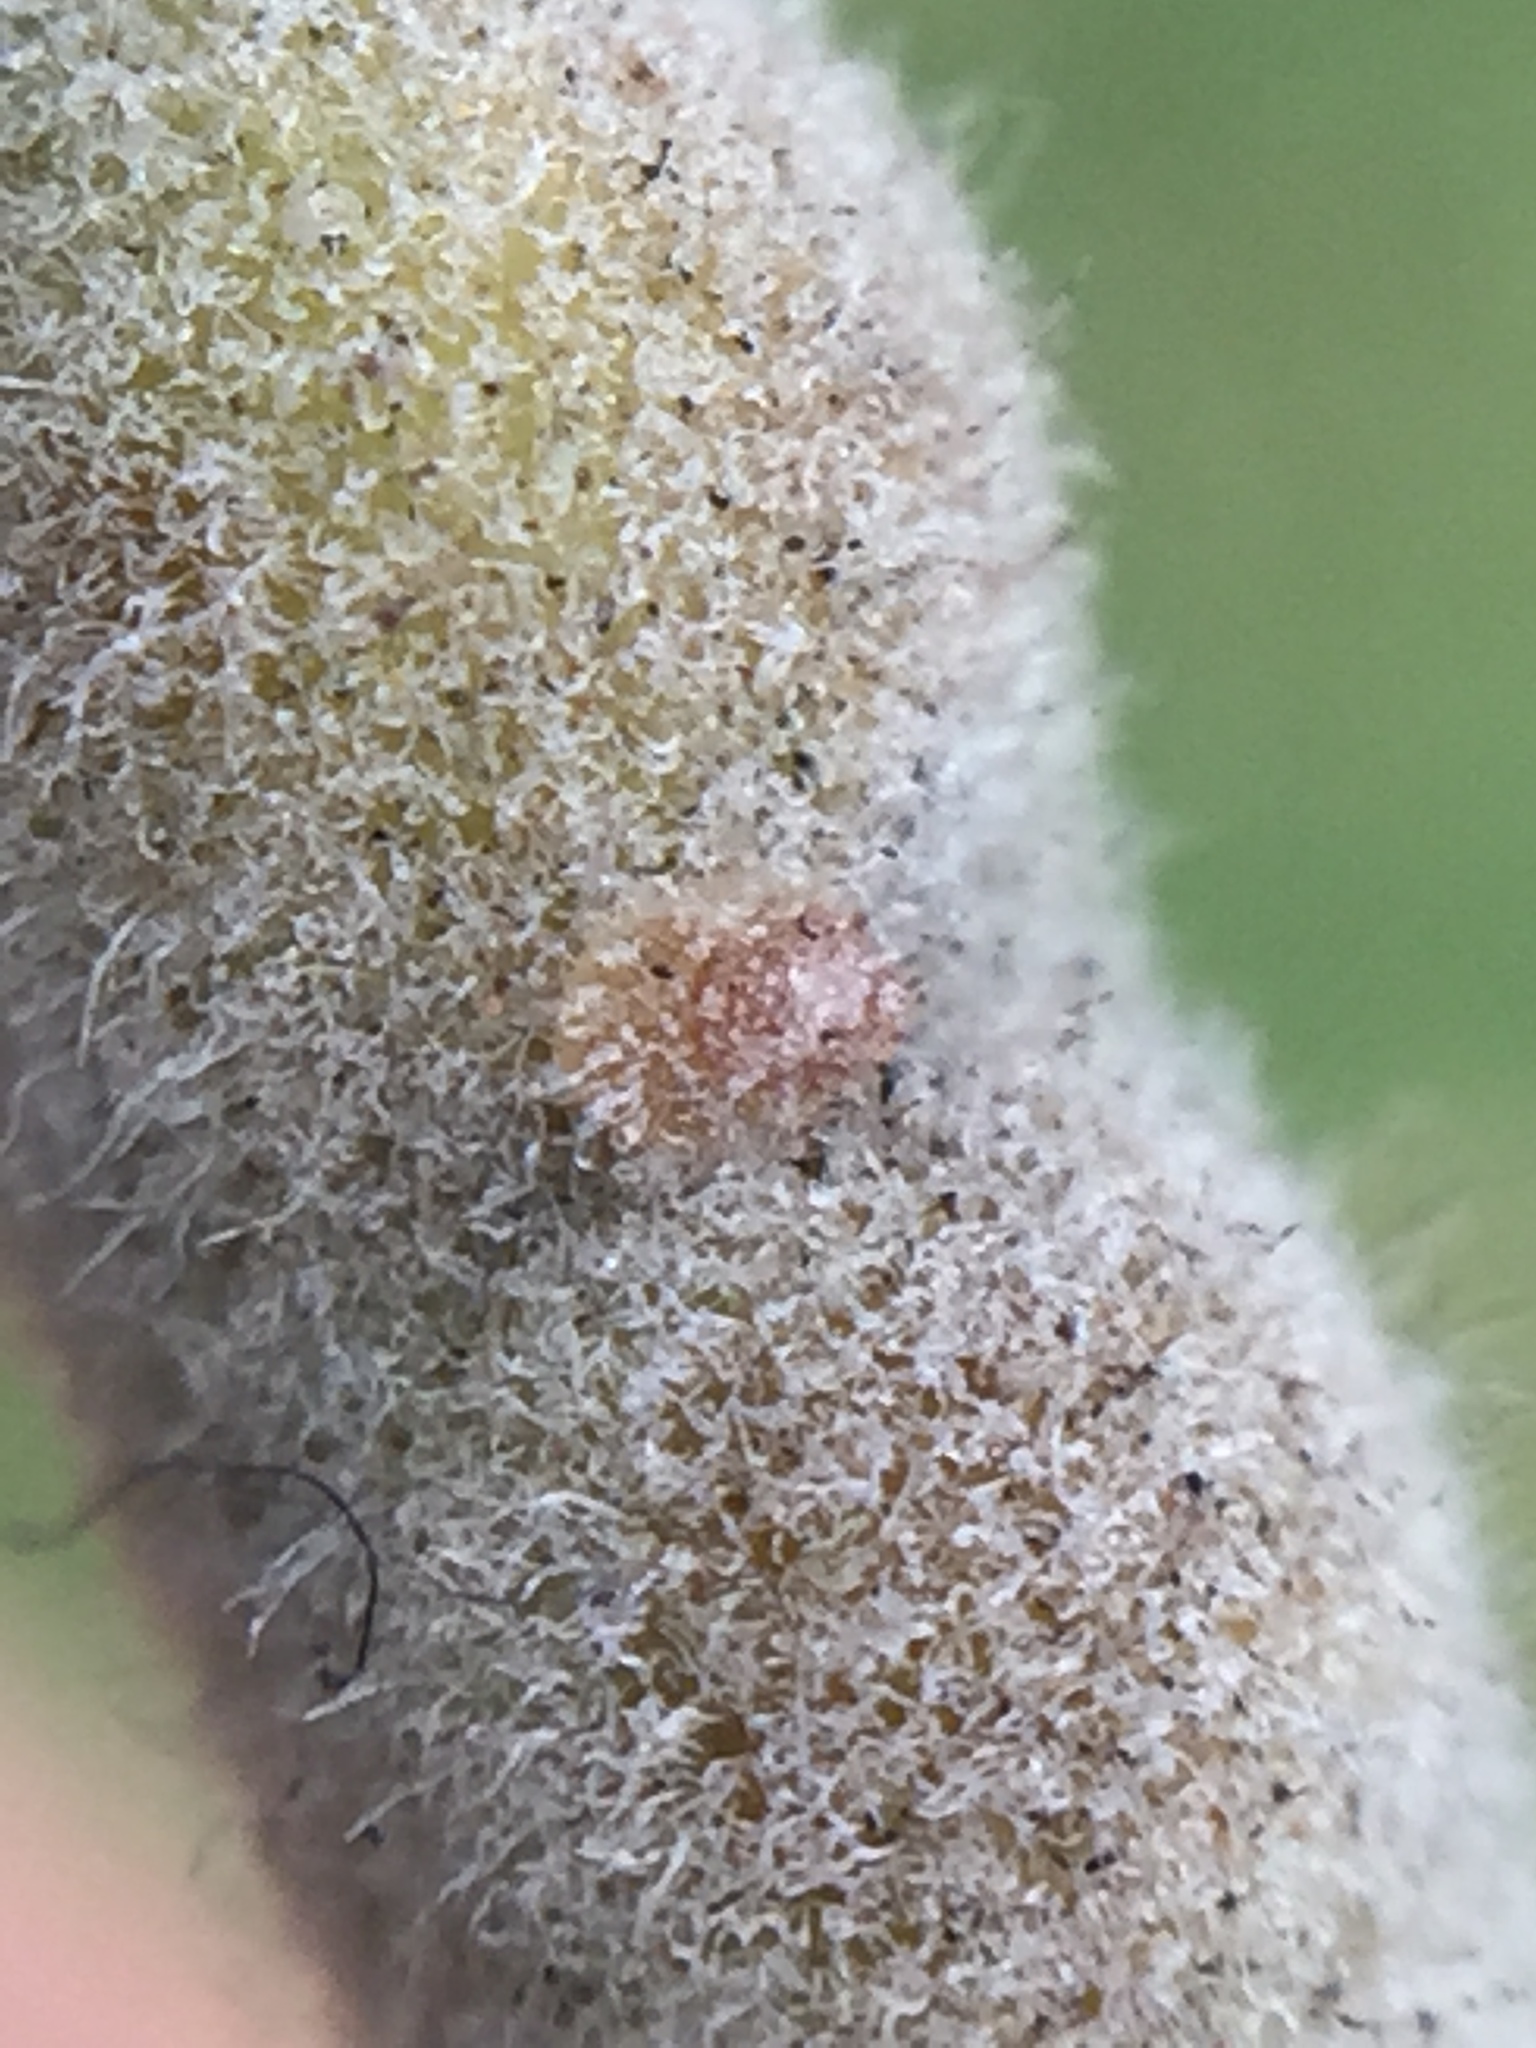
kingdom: Animalia
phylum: Arthropoda
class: Insecta
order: Hemiptera
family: Coccidae
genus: Lecanochiton
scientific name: Lecanochiton actites
